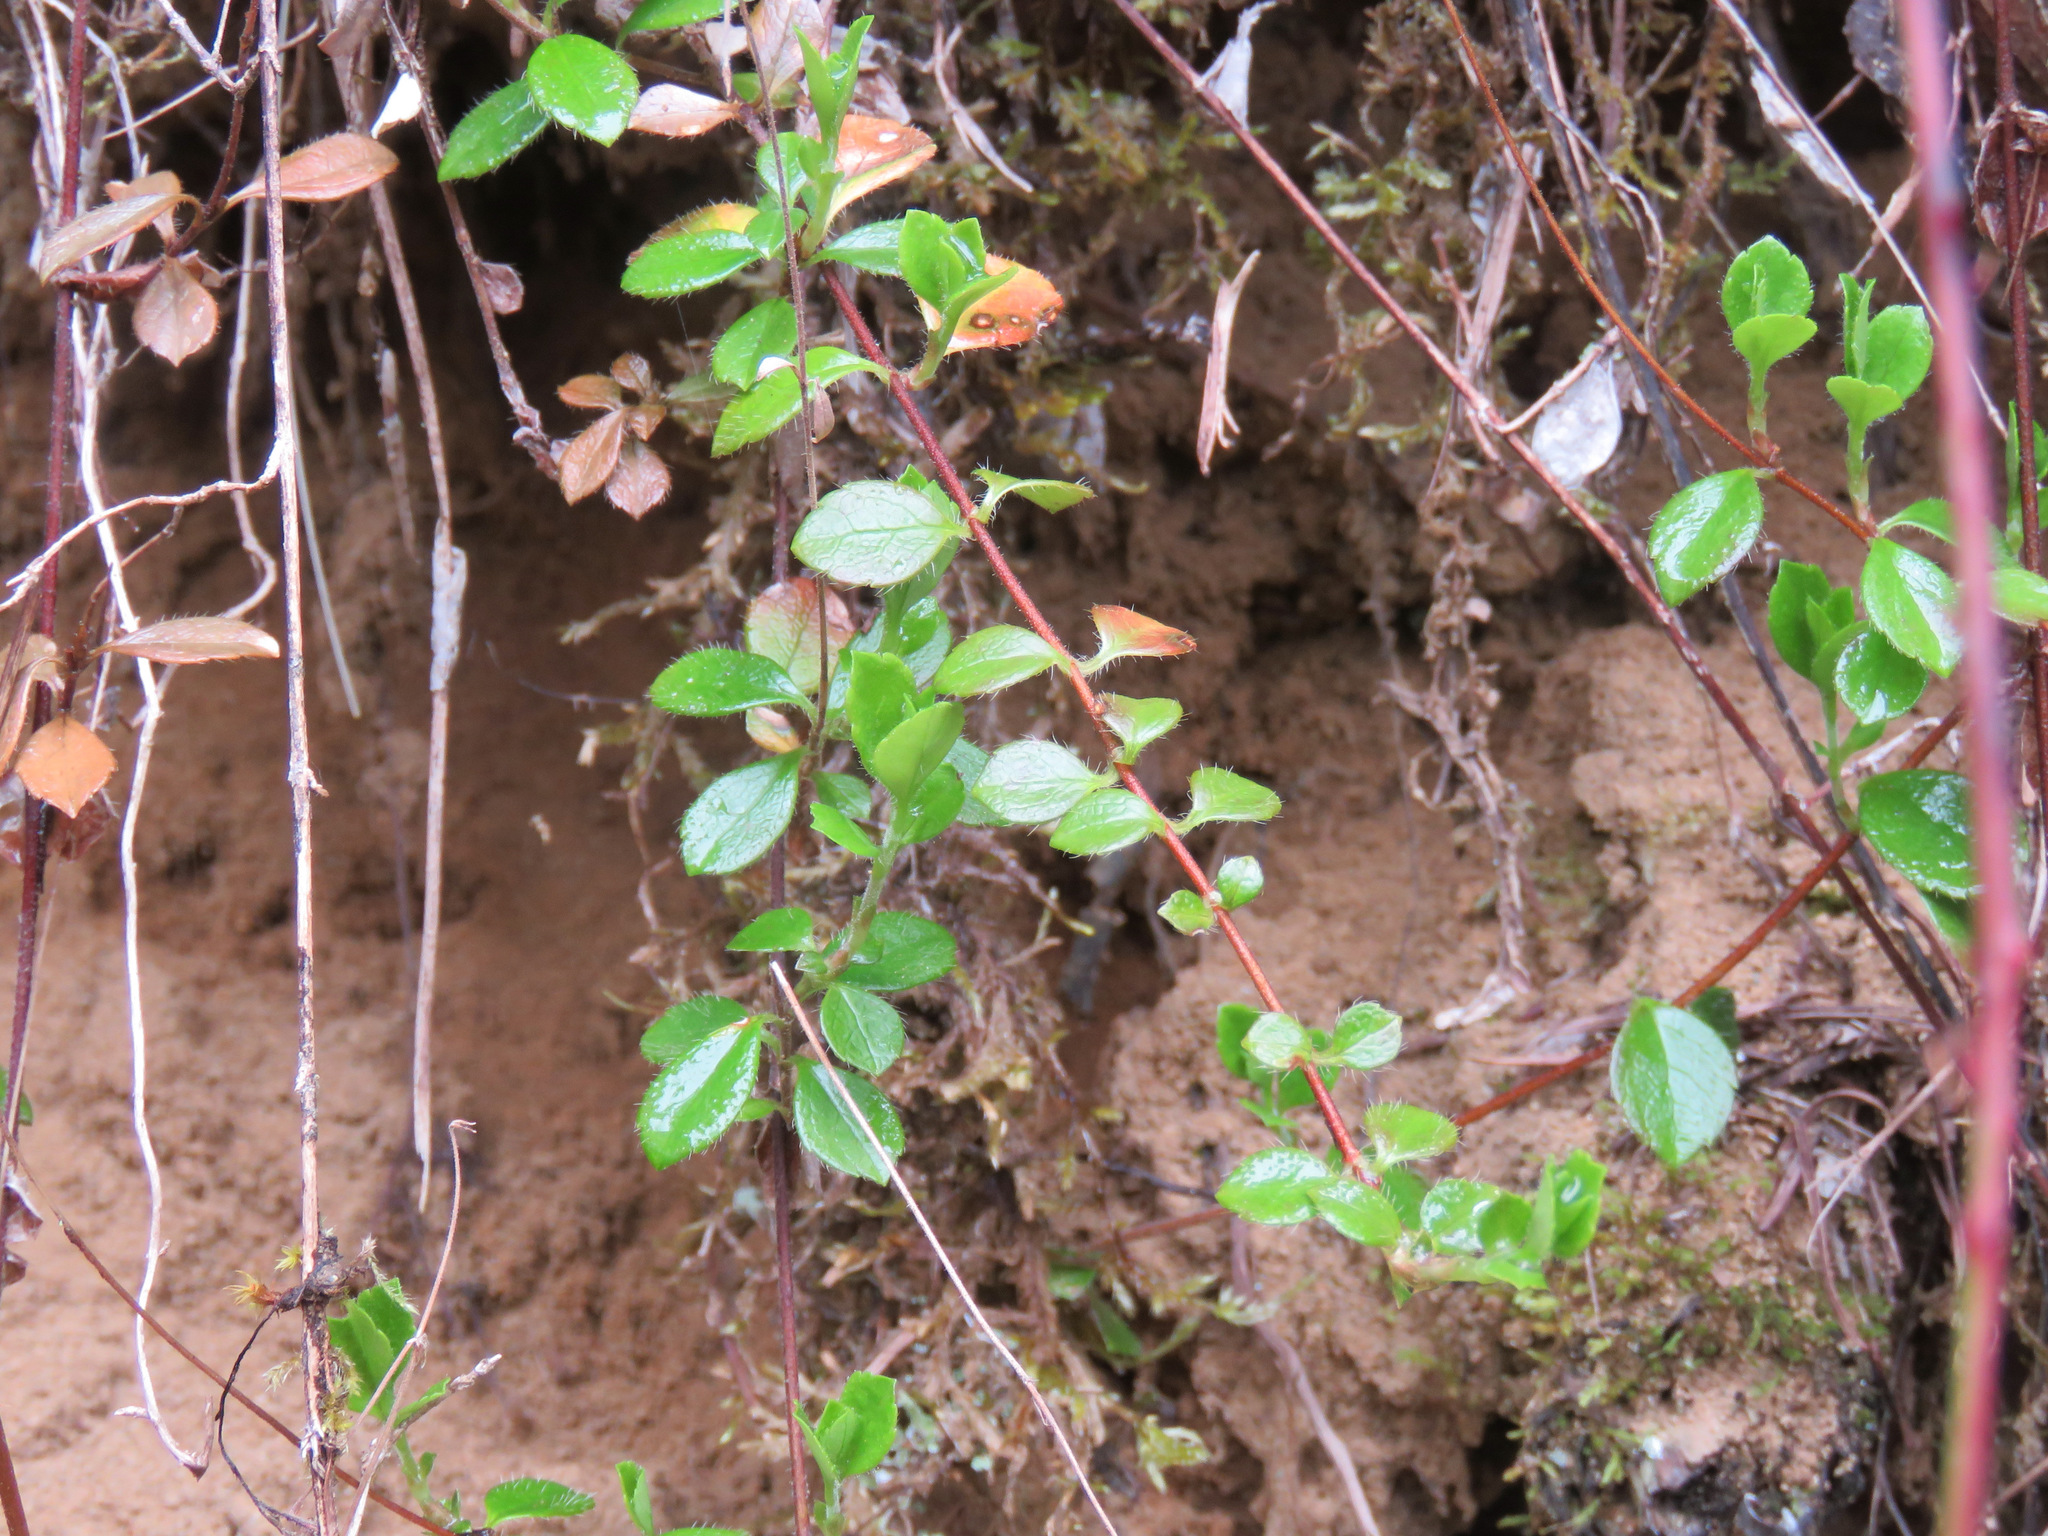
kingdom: Plantae
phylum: Tracheophyta
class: Magnoliopsida
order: Dipsacales
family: Caprifoliaceae
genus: Linnaea
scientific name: Linnaea borealis
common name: Twinflower
